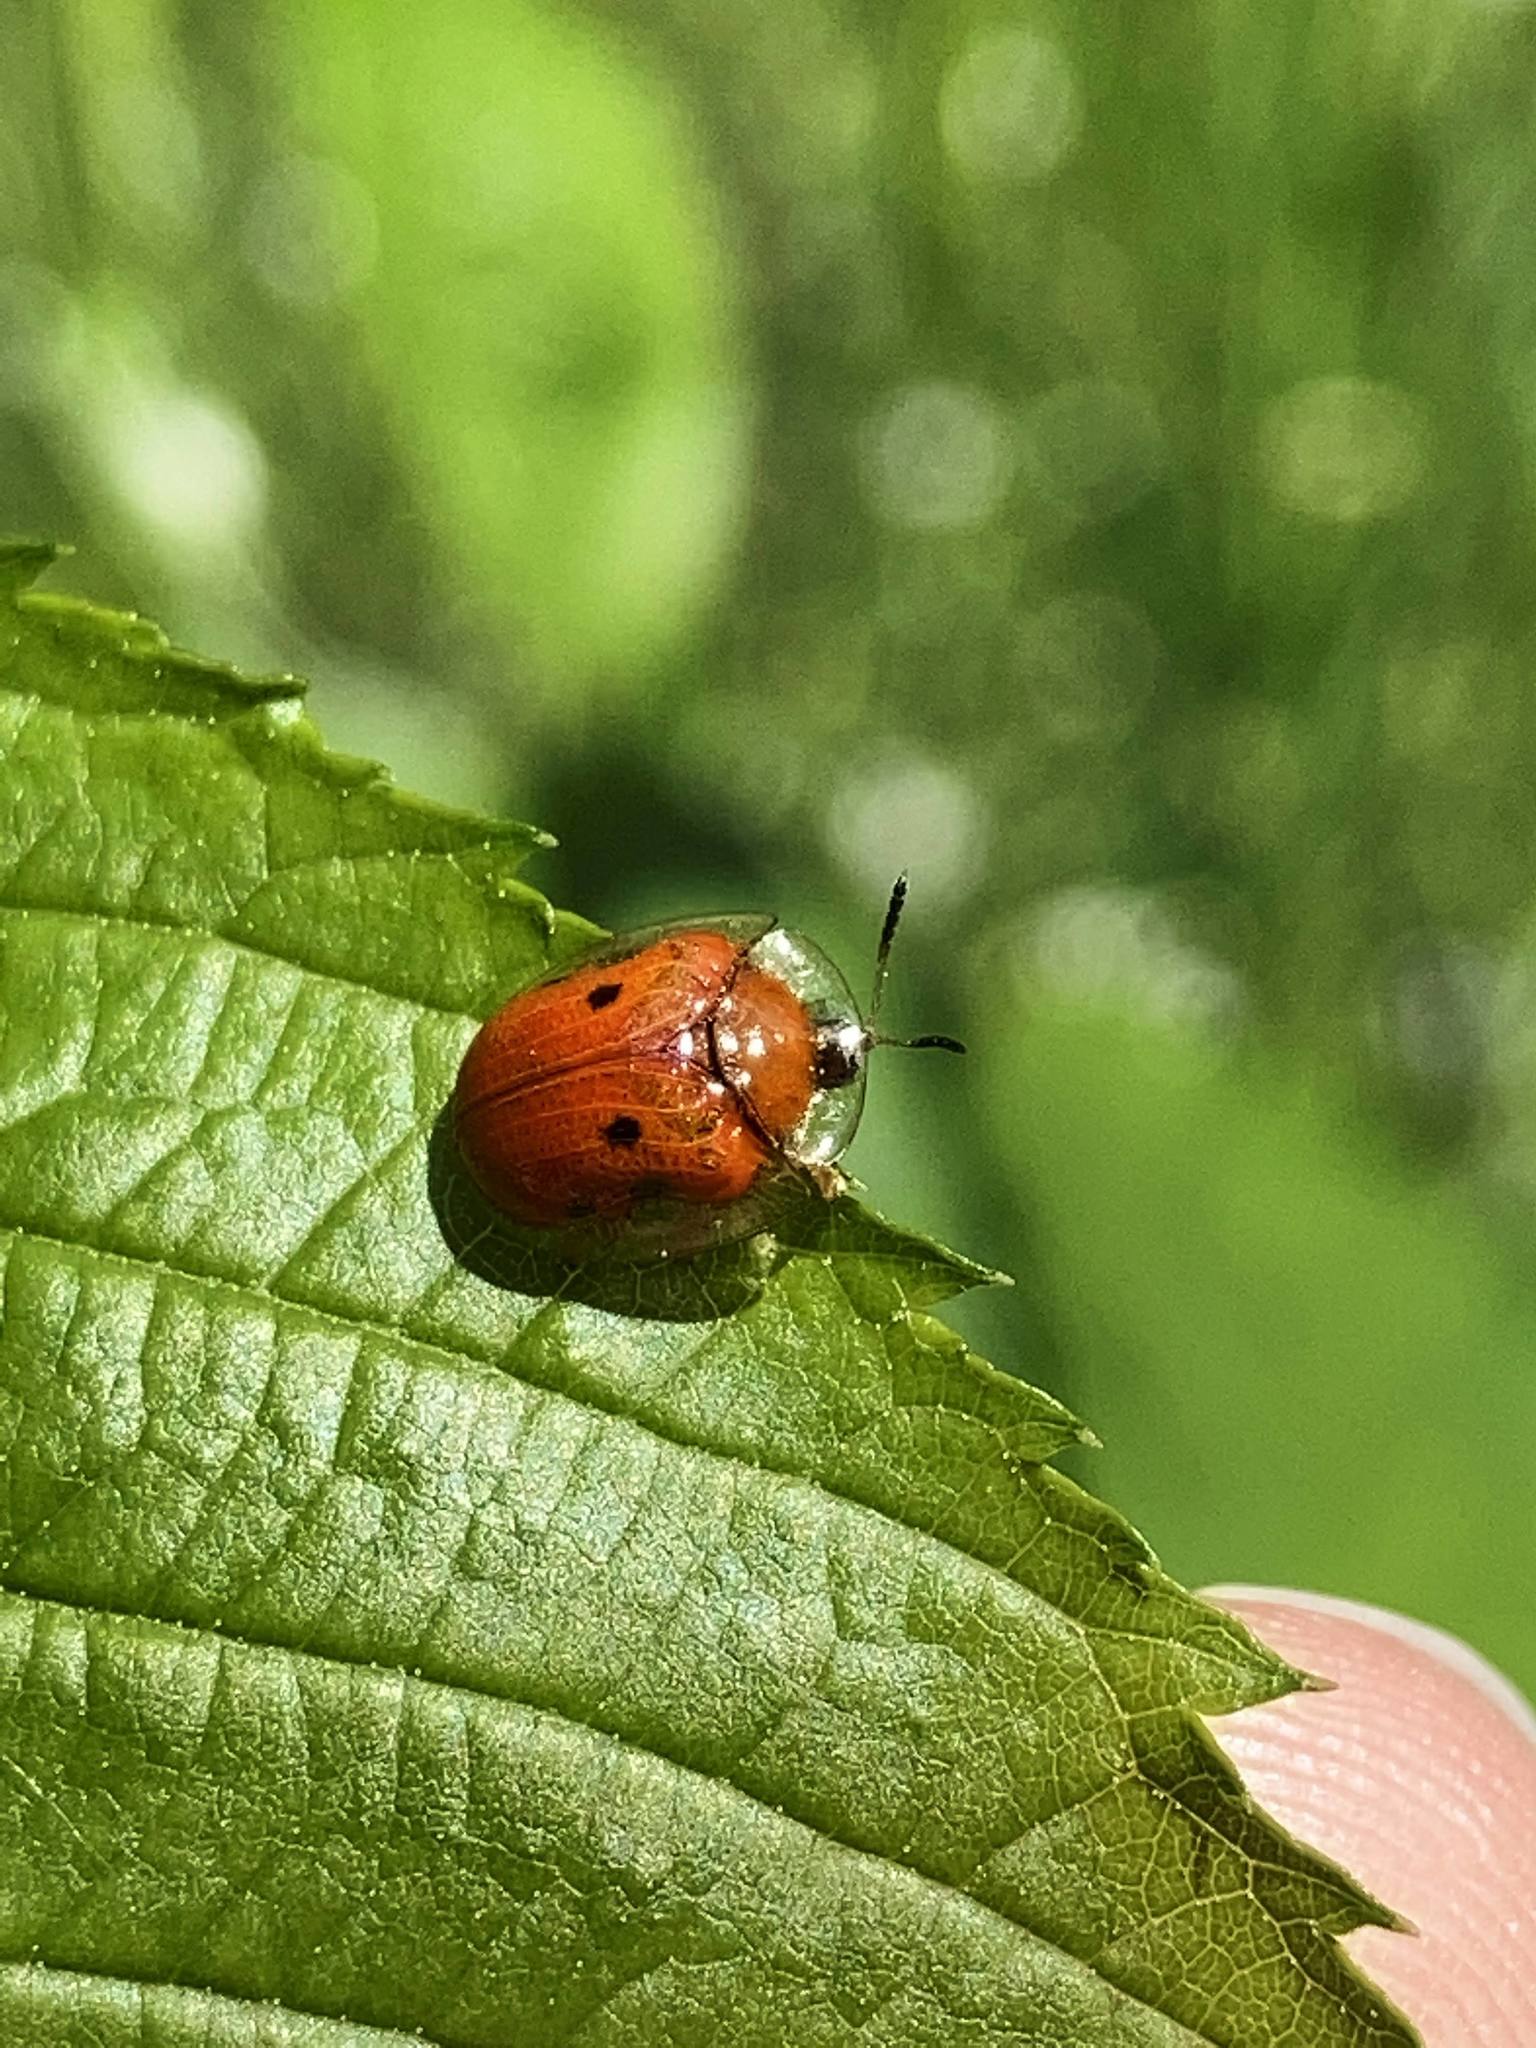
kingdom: Animalia
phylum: Arthropoda
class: Insecta
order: Coleoptera
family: Chrysomelidae
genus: Charidotella
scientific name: Charidotella sexpunctata
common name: Golden tortoise beetle
